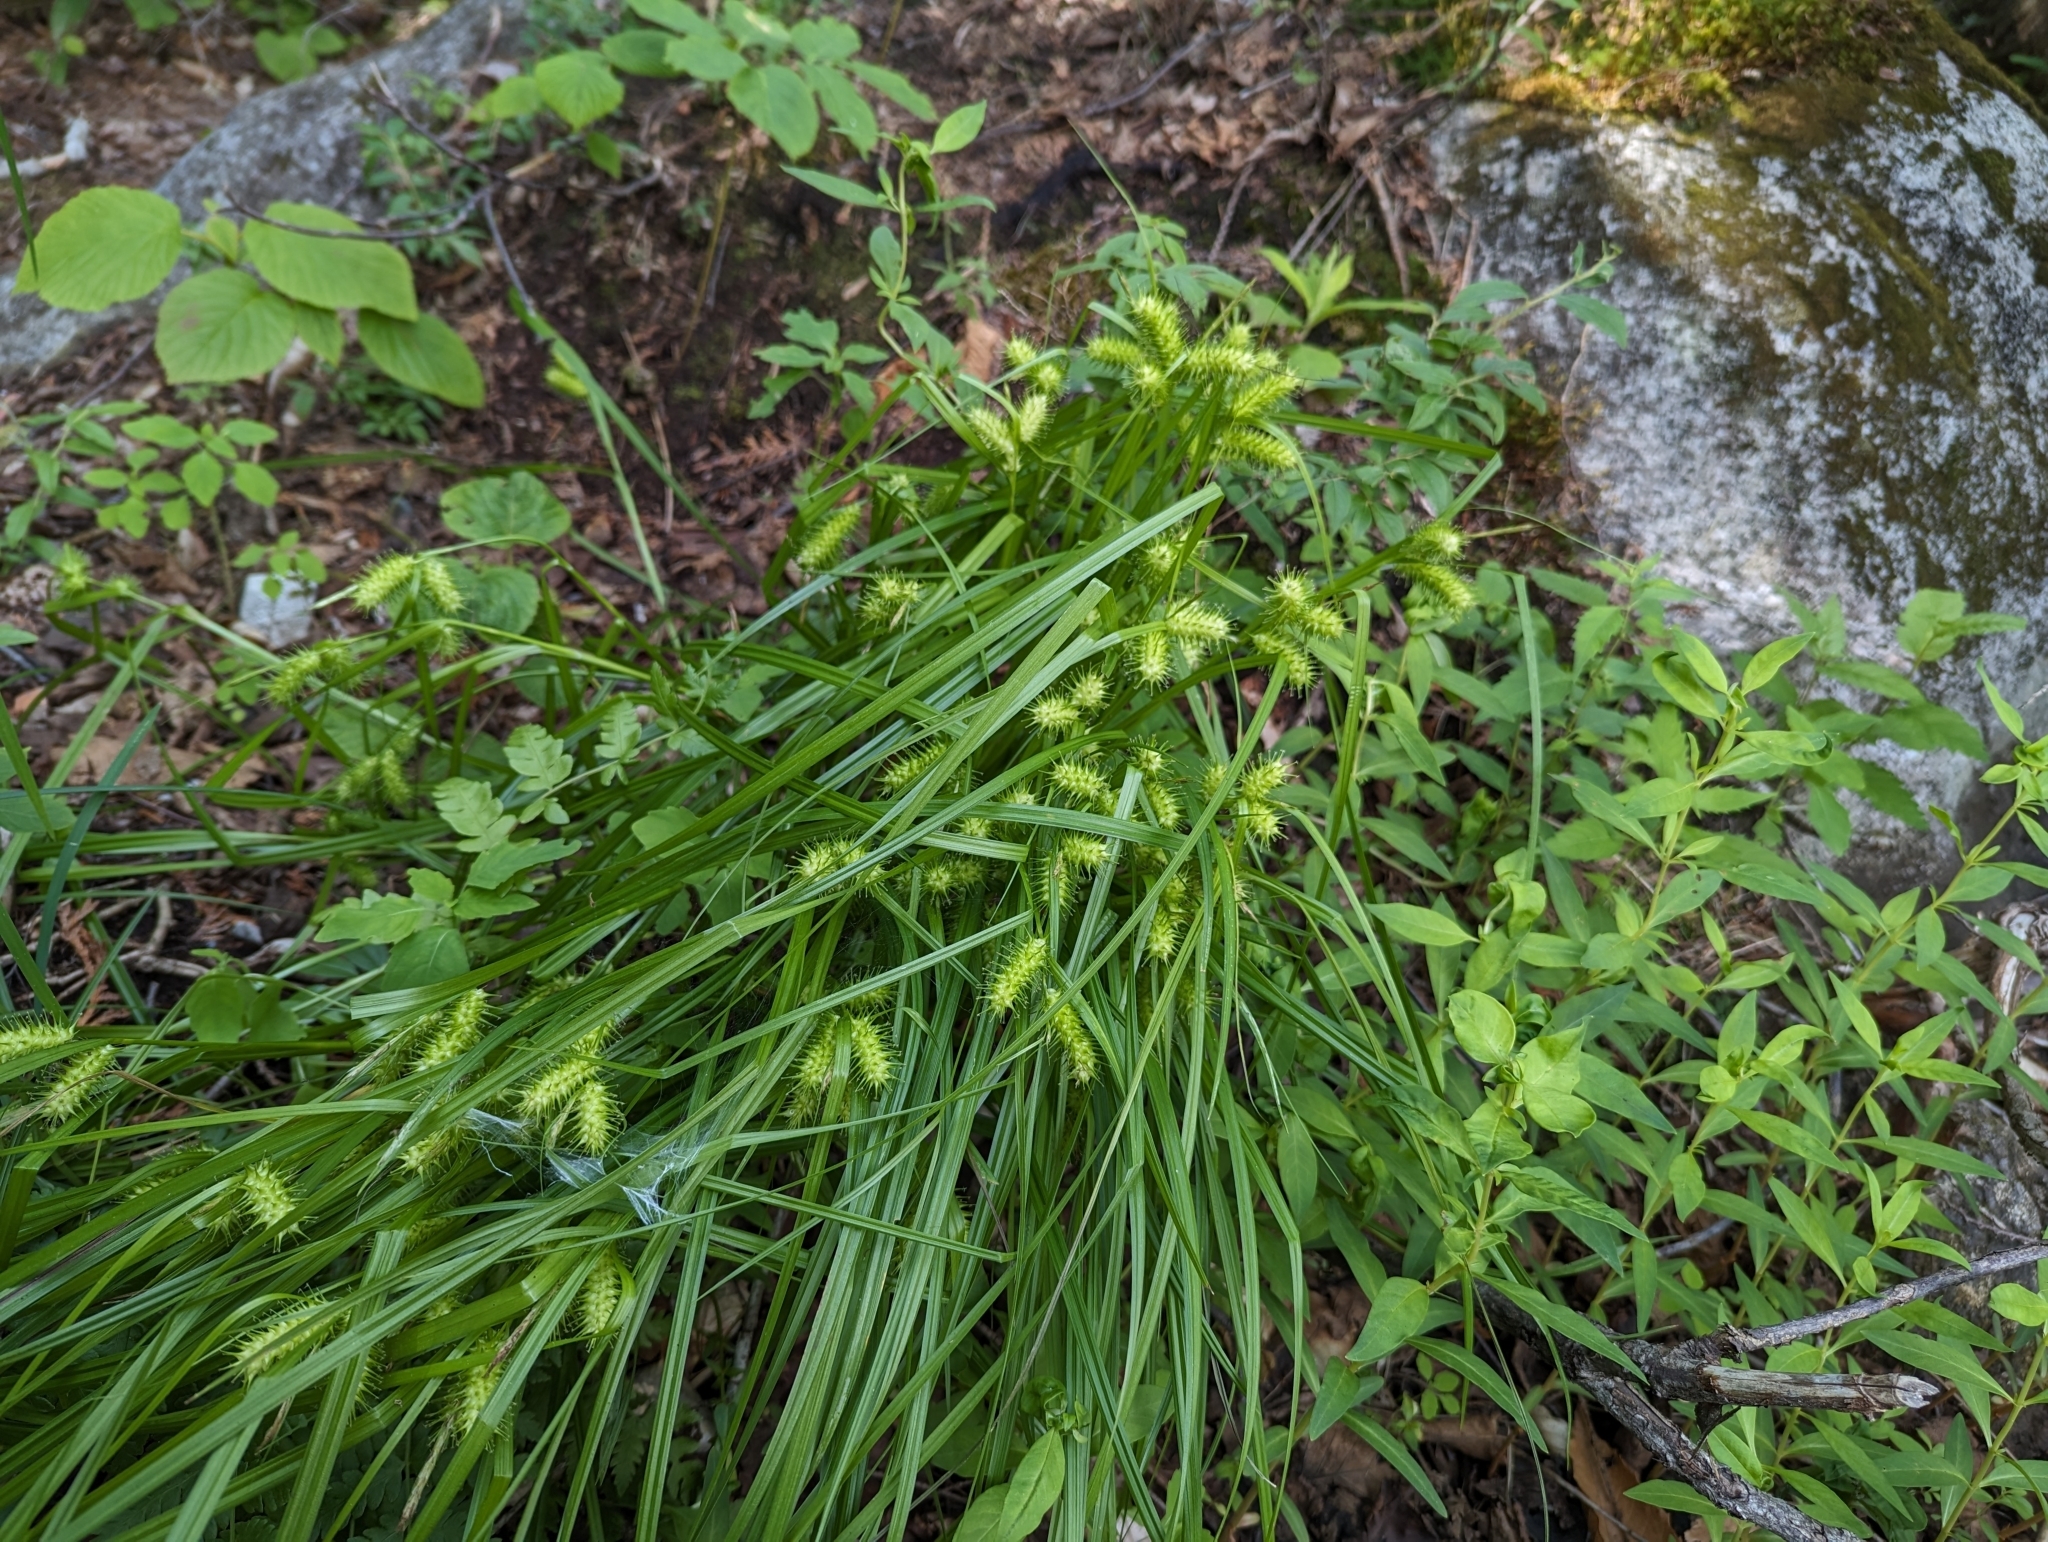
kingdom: Plantae
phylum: Tracheophyta
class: Liliopsida
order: Poales
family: Cyperaceae
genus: Carex
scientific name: Carex lurida
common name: Sallow sedge
